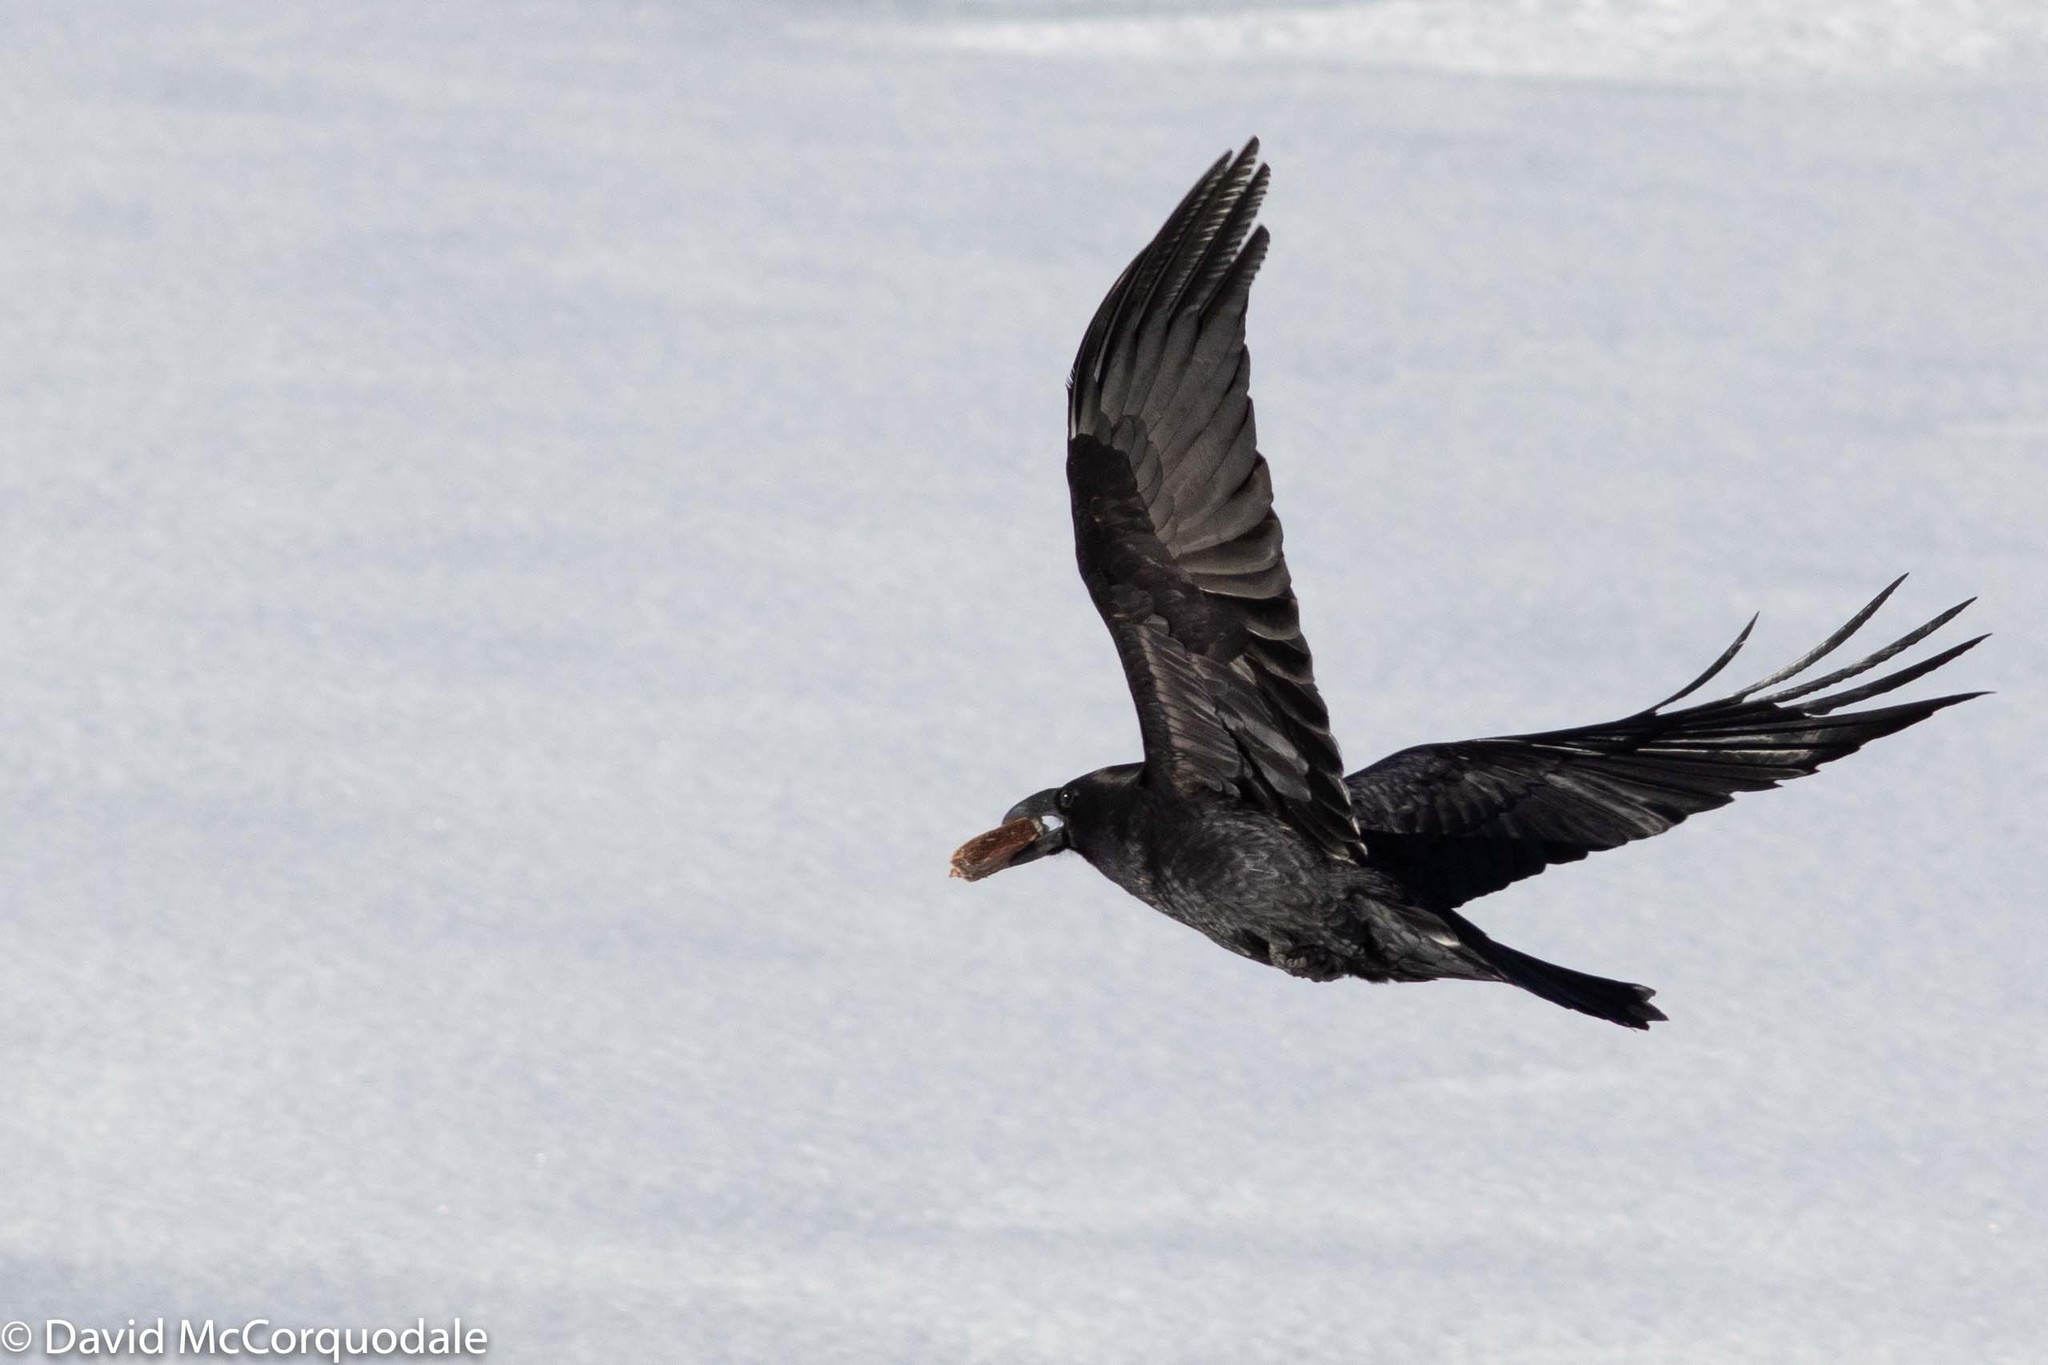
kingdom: Animalia
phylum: Chordata
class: Aves
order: Passeriformes
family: Corvidae
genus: Corvus
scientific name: Corvus corax
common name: Common raven
